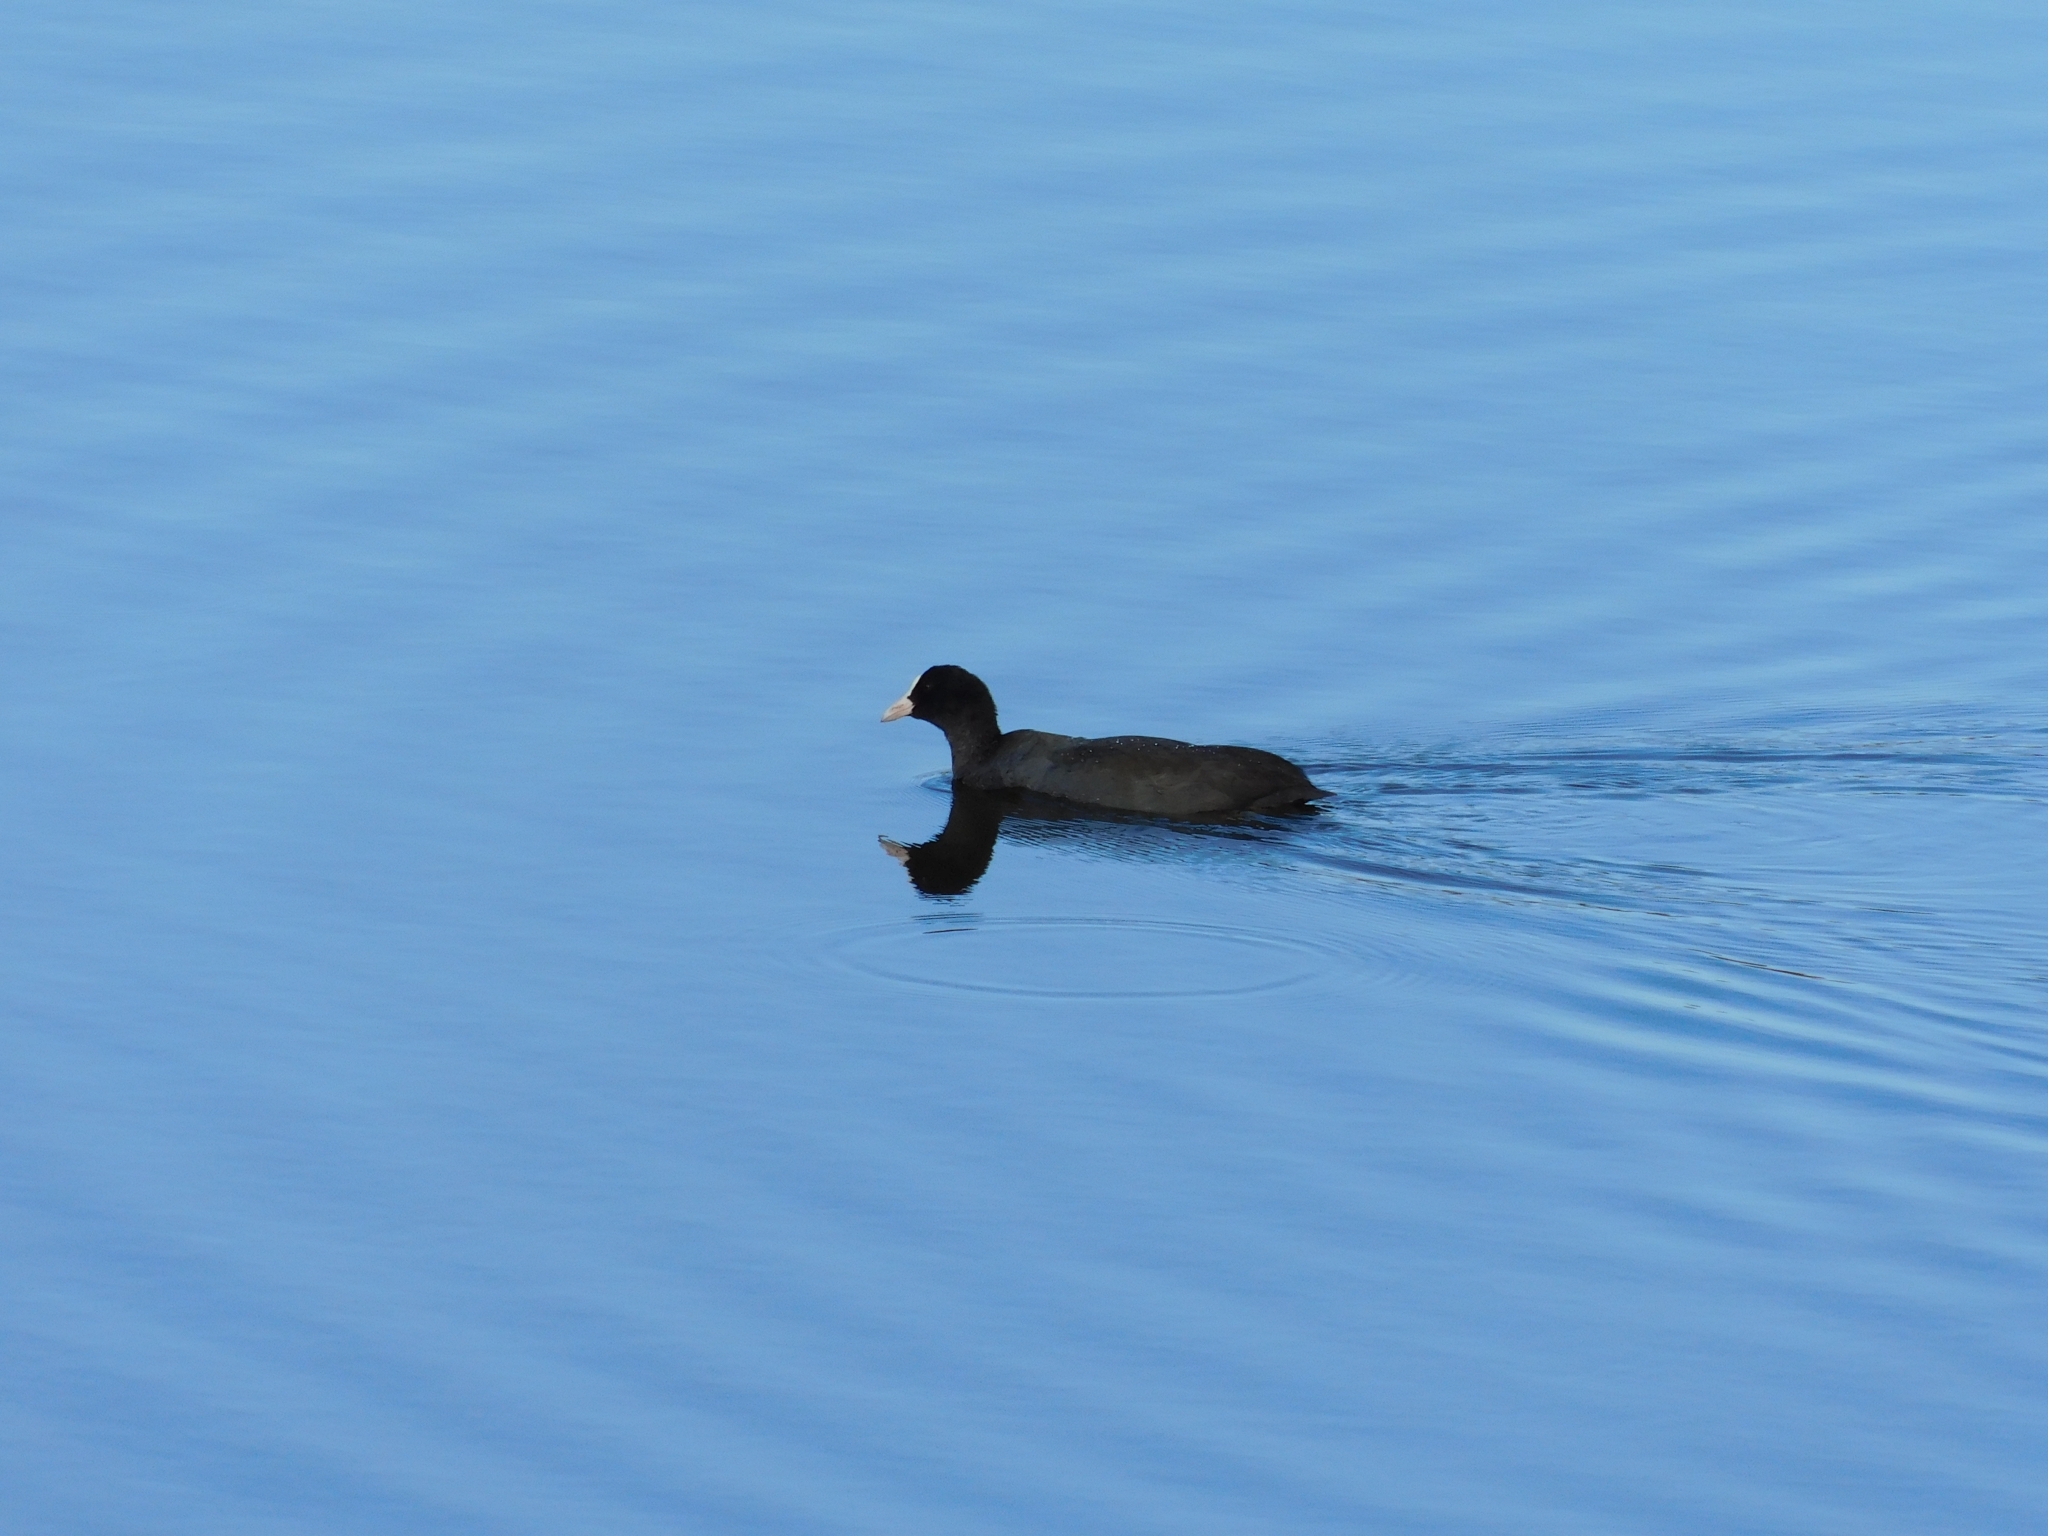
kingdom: Animalia
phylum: Chordata
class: Aves
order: Gruiformes
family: Rallidae
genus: Fulica
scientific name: Fulica atra
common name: Eurasian coot
